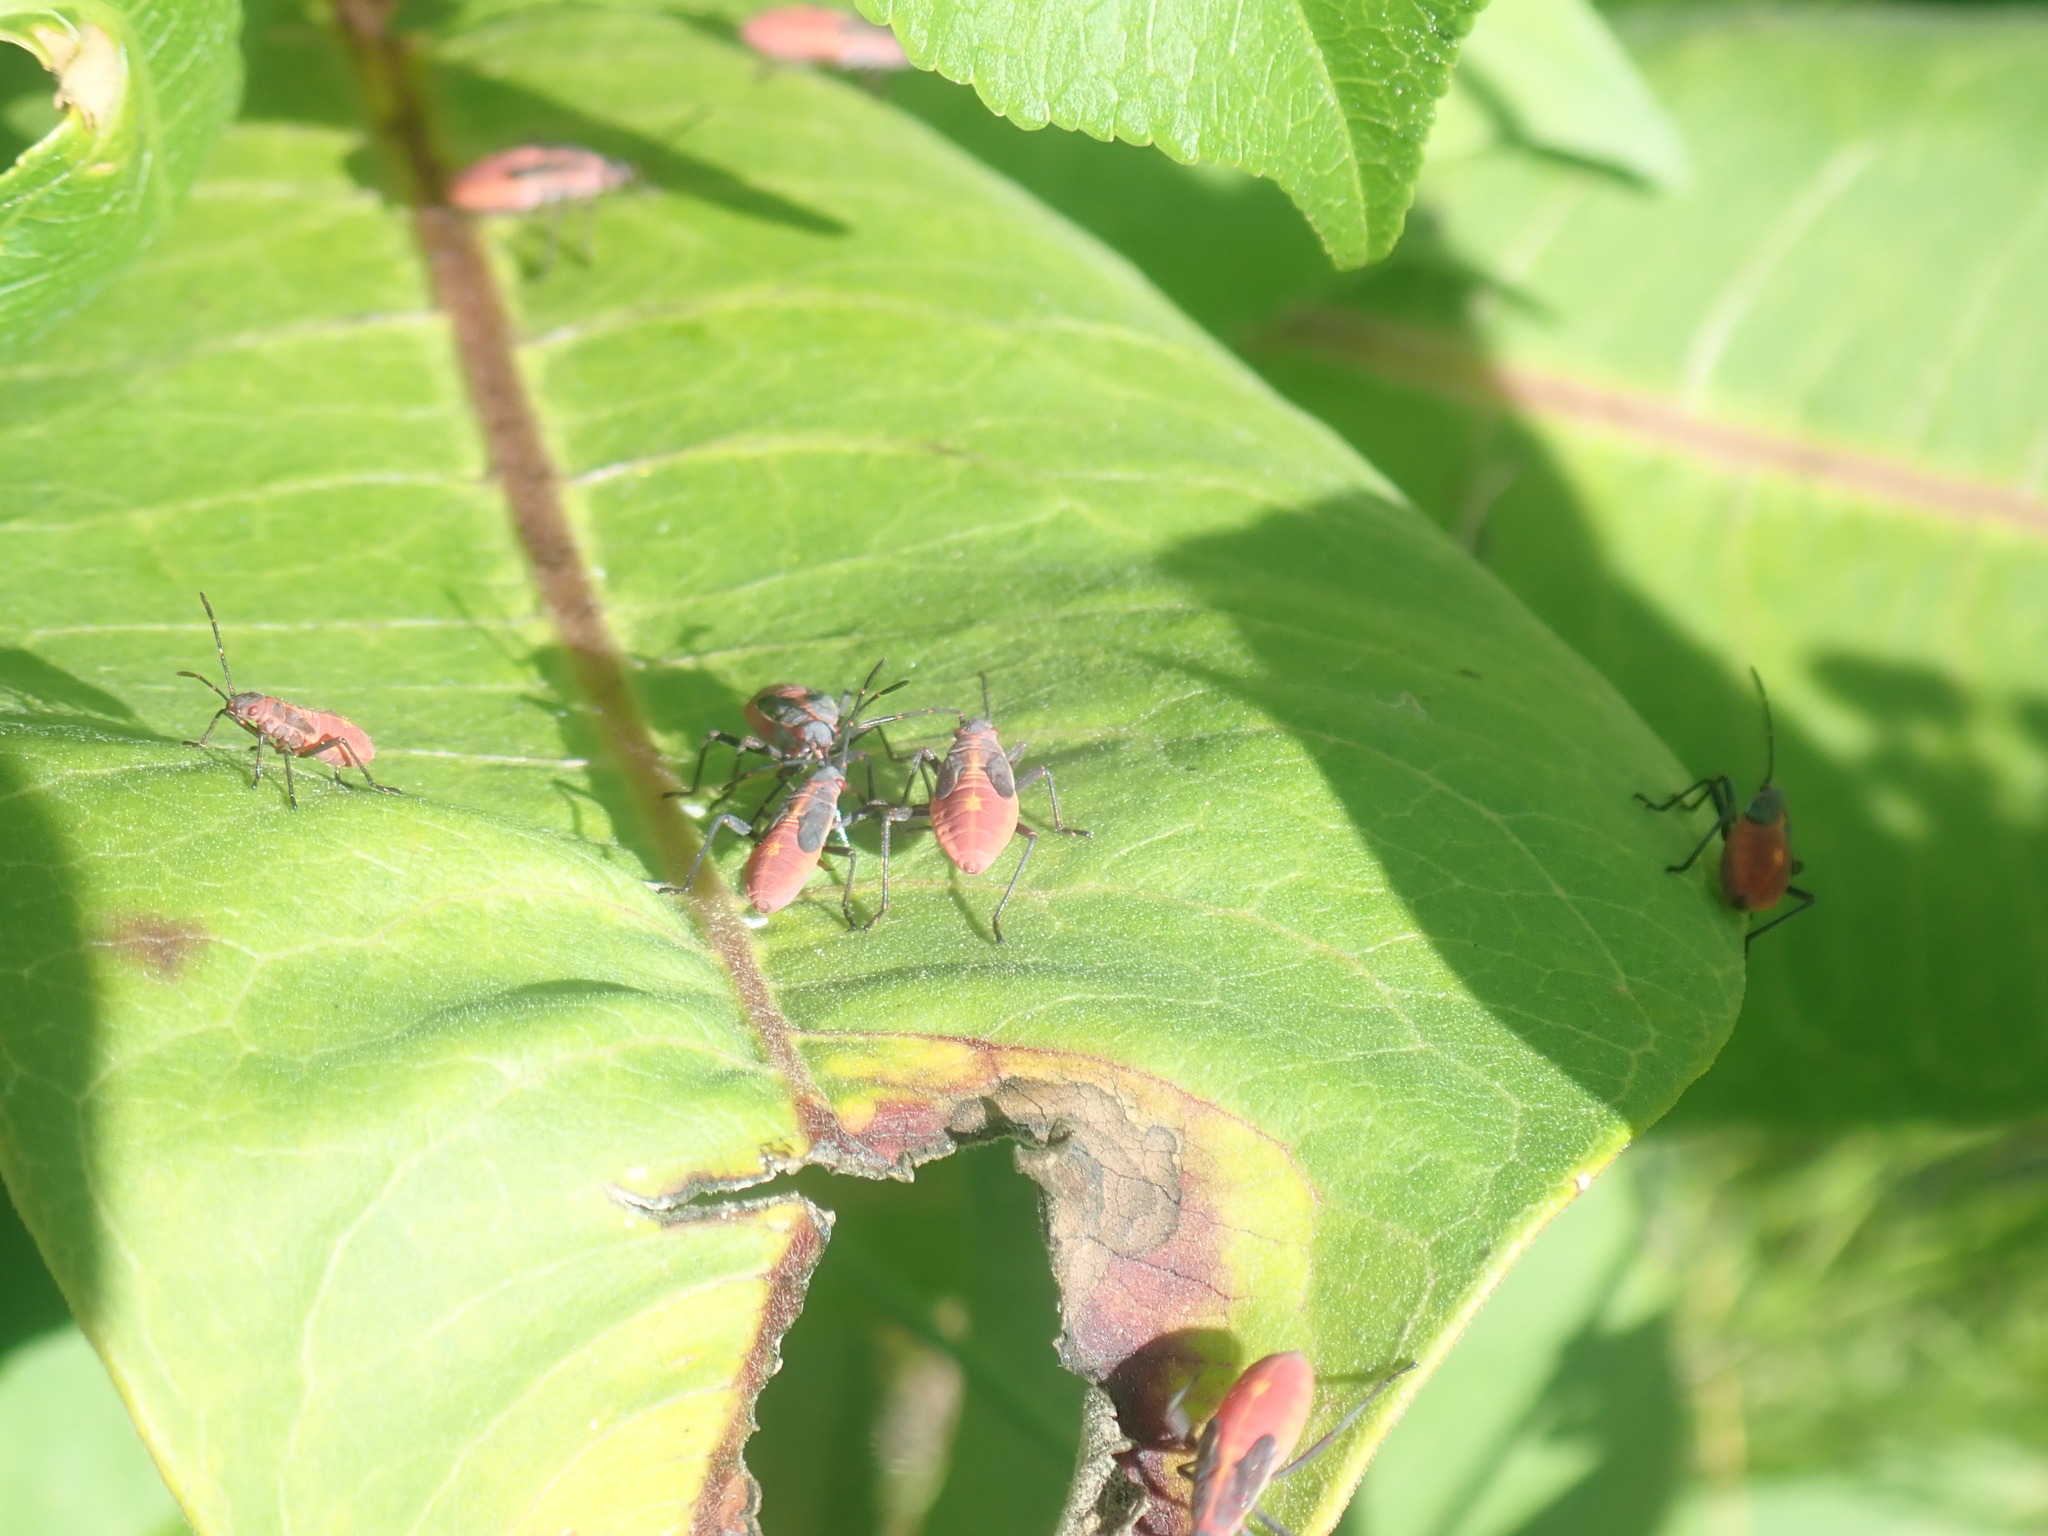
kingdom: Animalia
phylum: Arthropoda
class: Insecta
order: Hemiptera
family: Rhopalidae
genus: Boisea
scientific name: Boisea trivittata
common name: Boxelder bug
